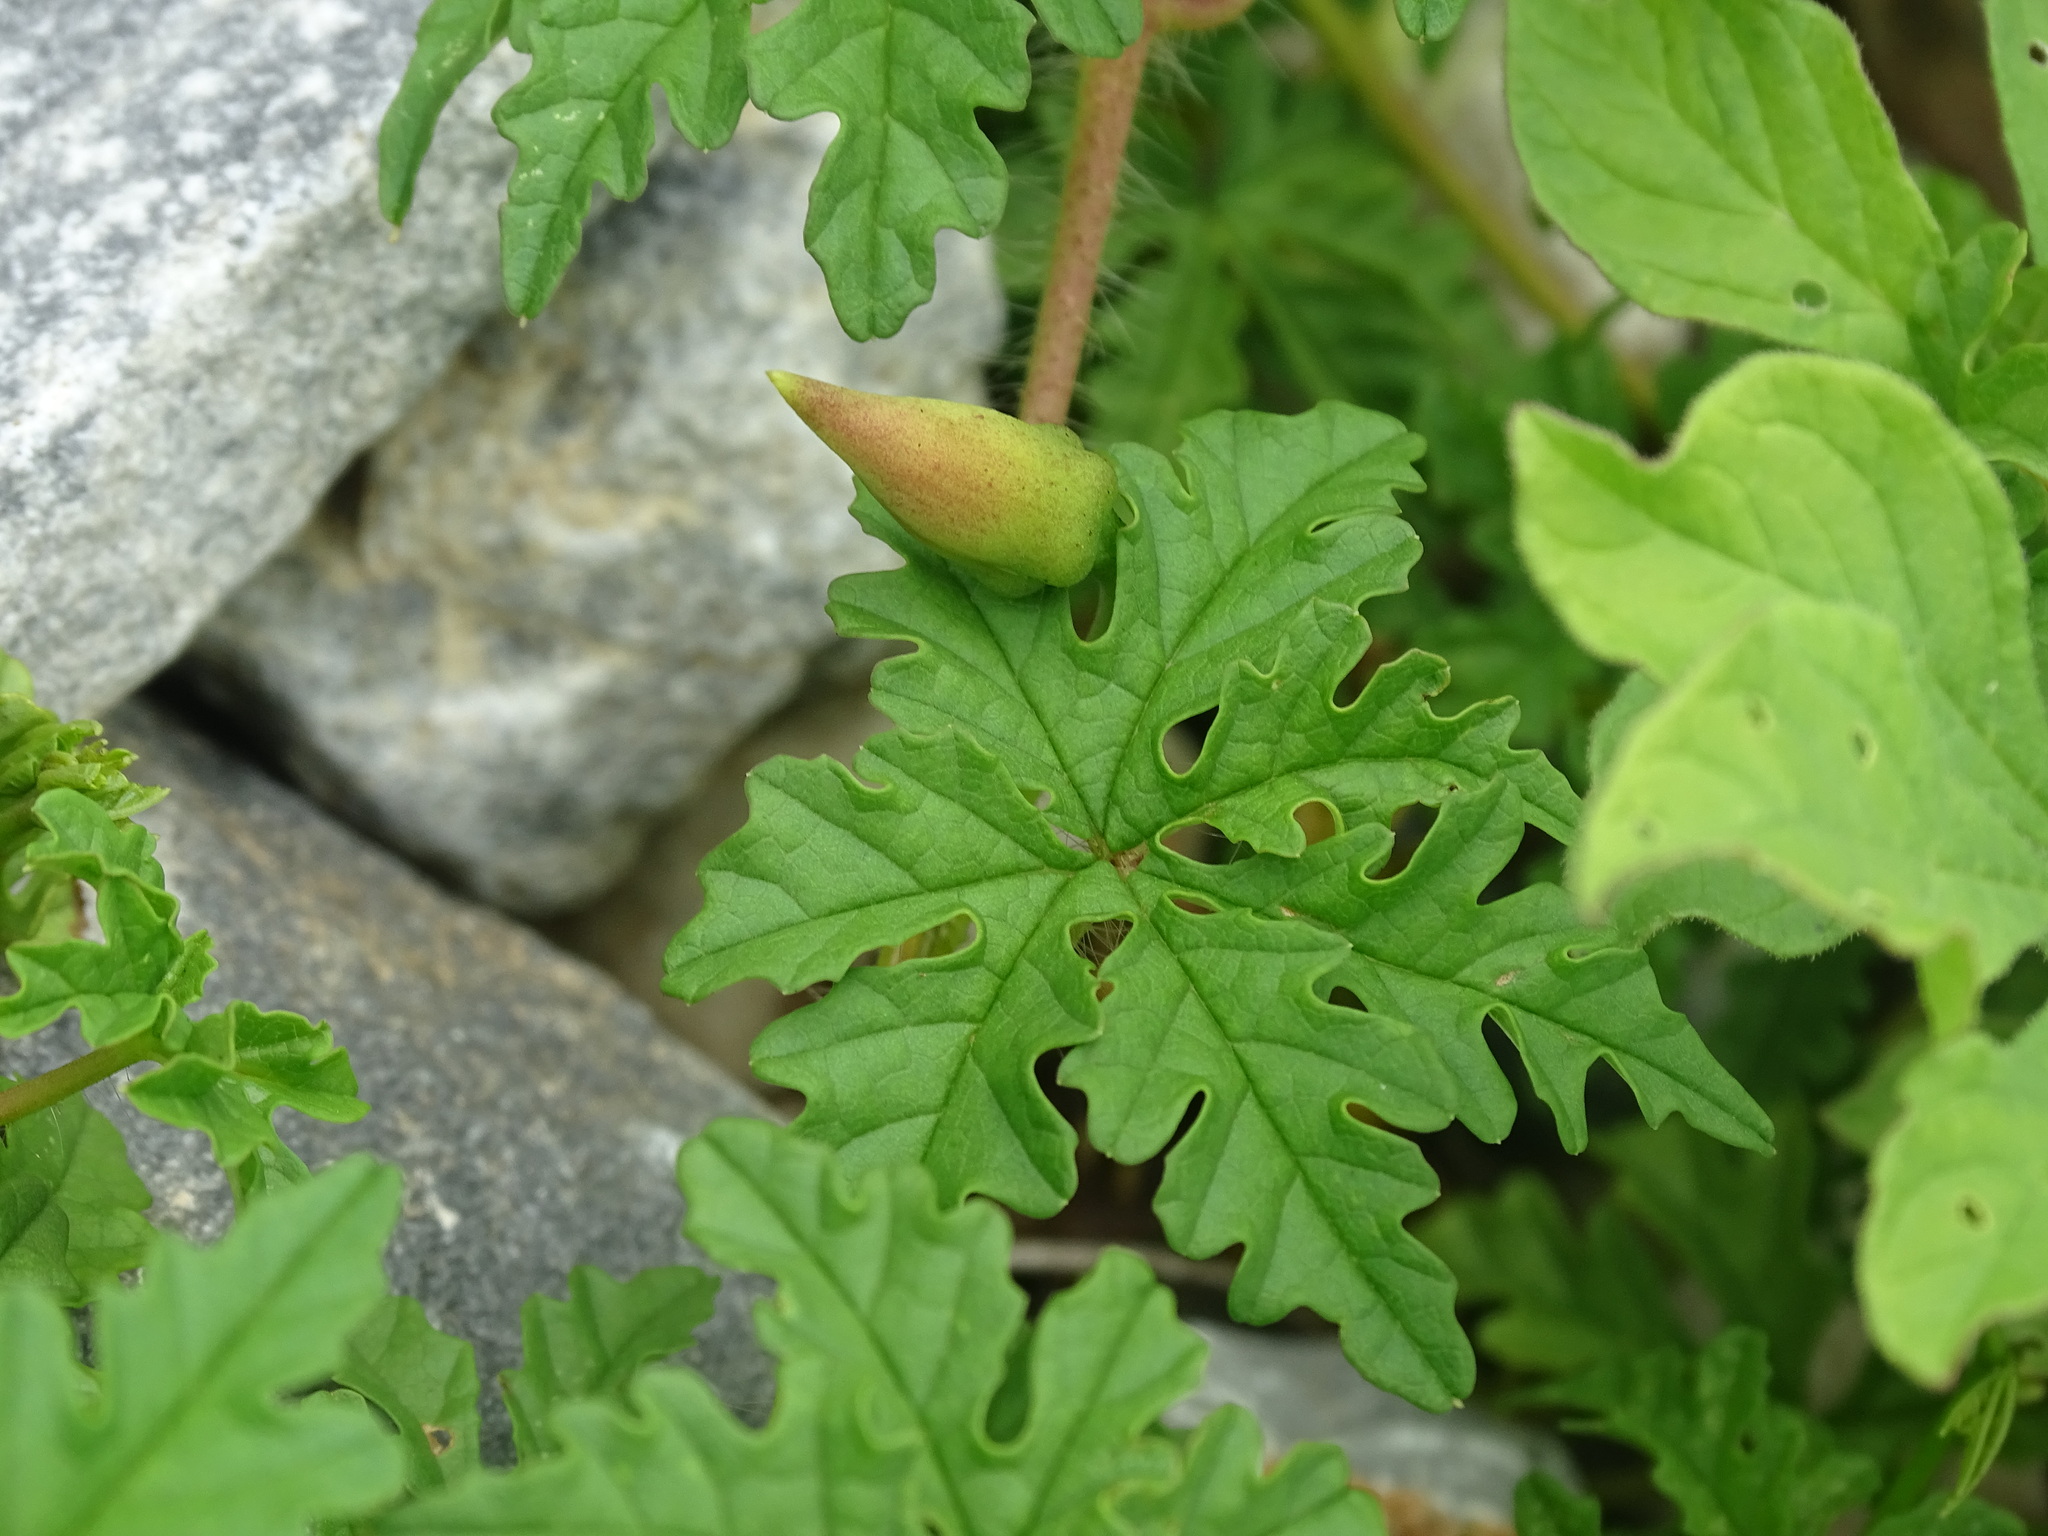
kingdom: Plantae
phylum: Tracheophyta
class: Magnoliopsida
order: Solanales
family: Convolvulaceae
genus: Distimake
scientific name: Distimake dissectus
